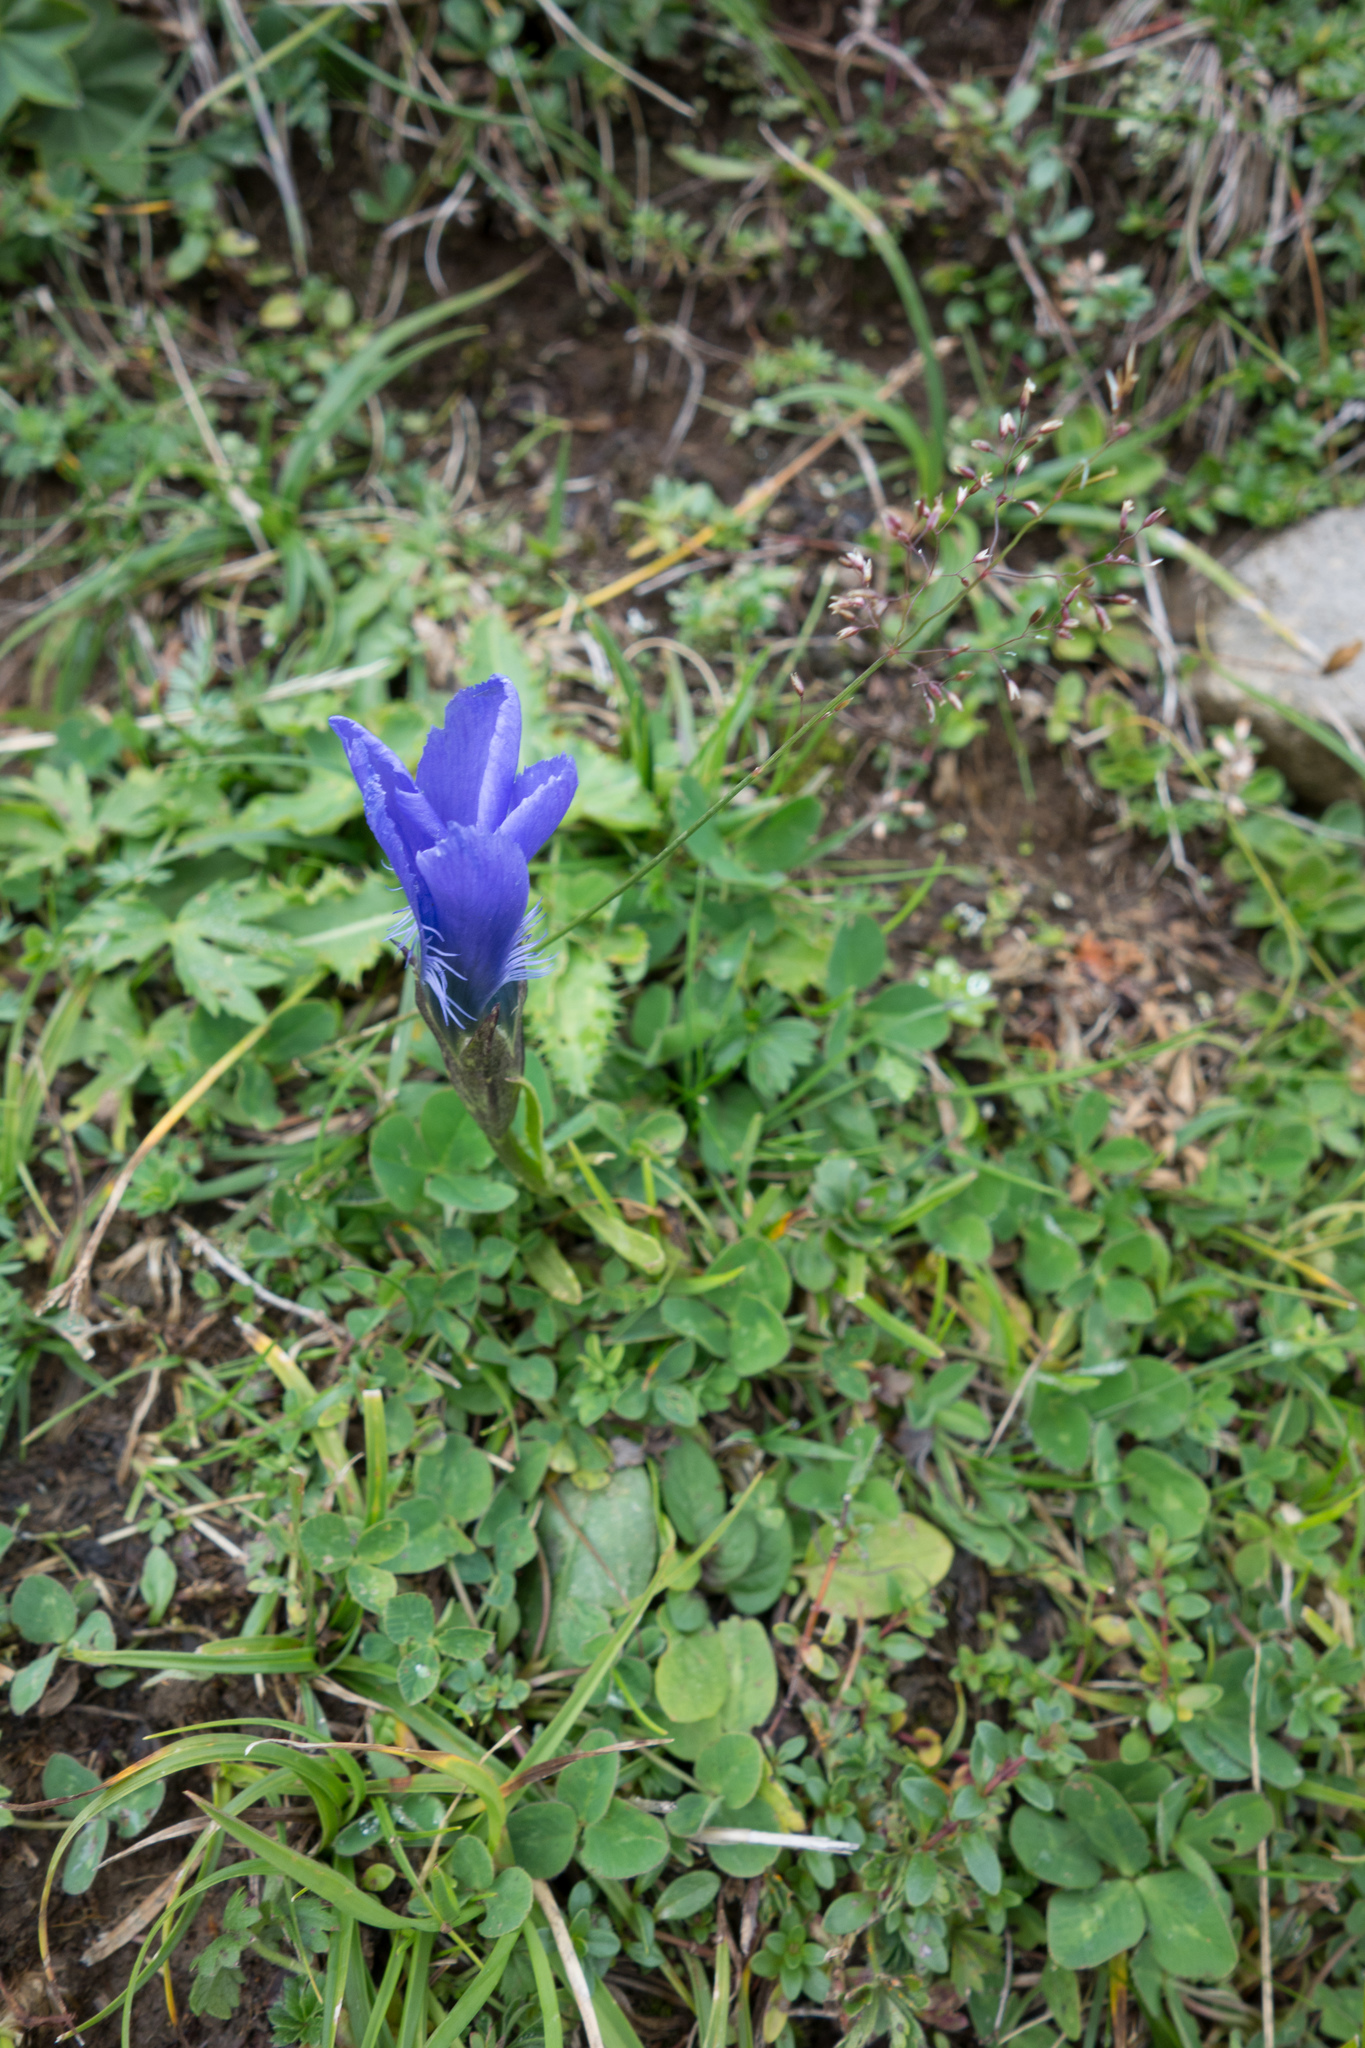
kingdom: Plantae
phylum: Tracheophyta
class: Magnoliopsida
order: Gentianales
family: Gentianaceae
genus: Gentianopsis
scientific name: Gentianopsis ciliata
